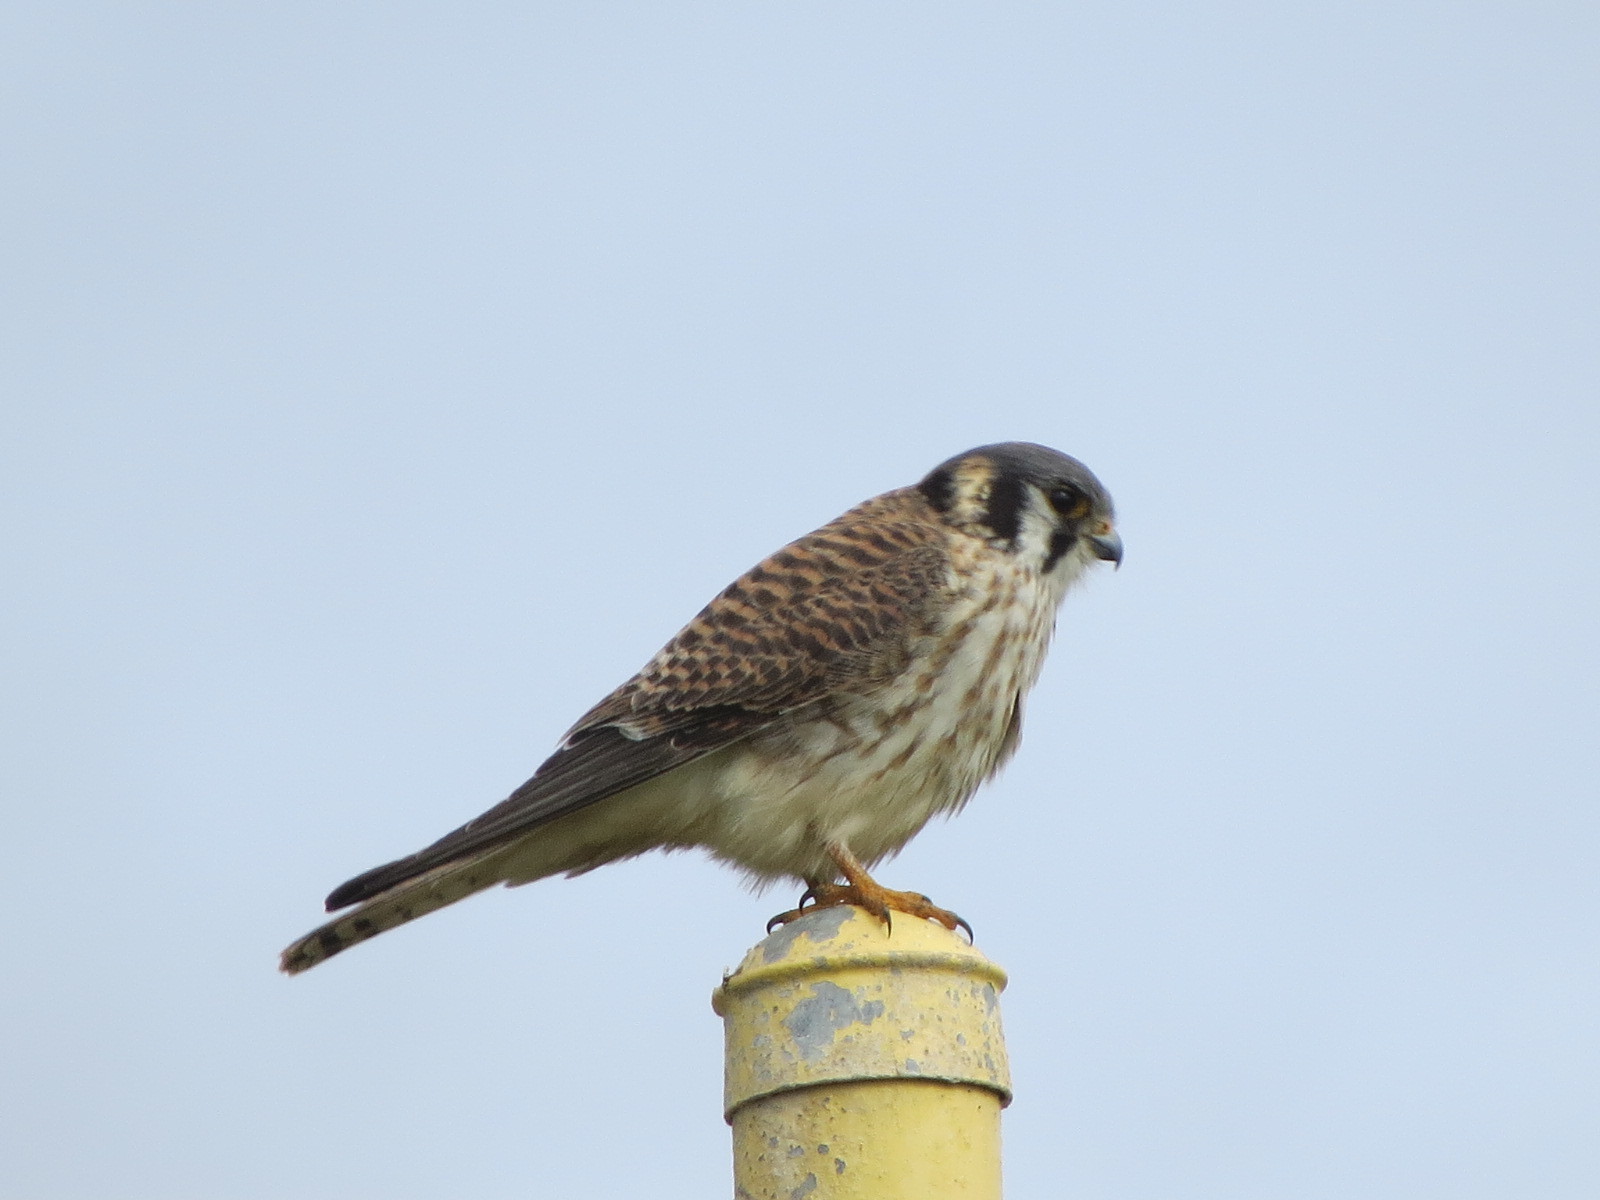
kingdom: Animalia
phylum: Chordata
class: Aves
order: Falconiformes
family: Falconidae
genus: Falco
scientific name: Falco sparverius
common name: American kestrel
